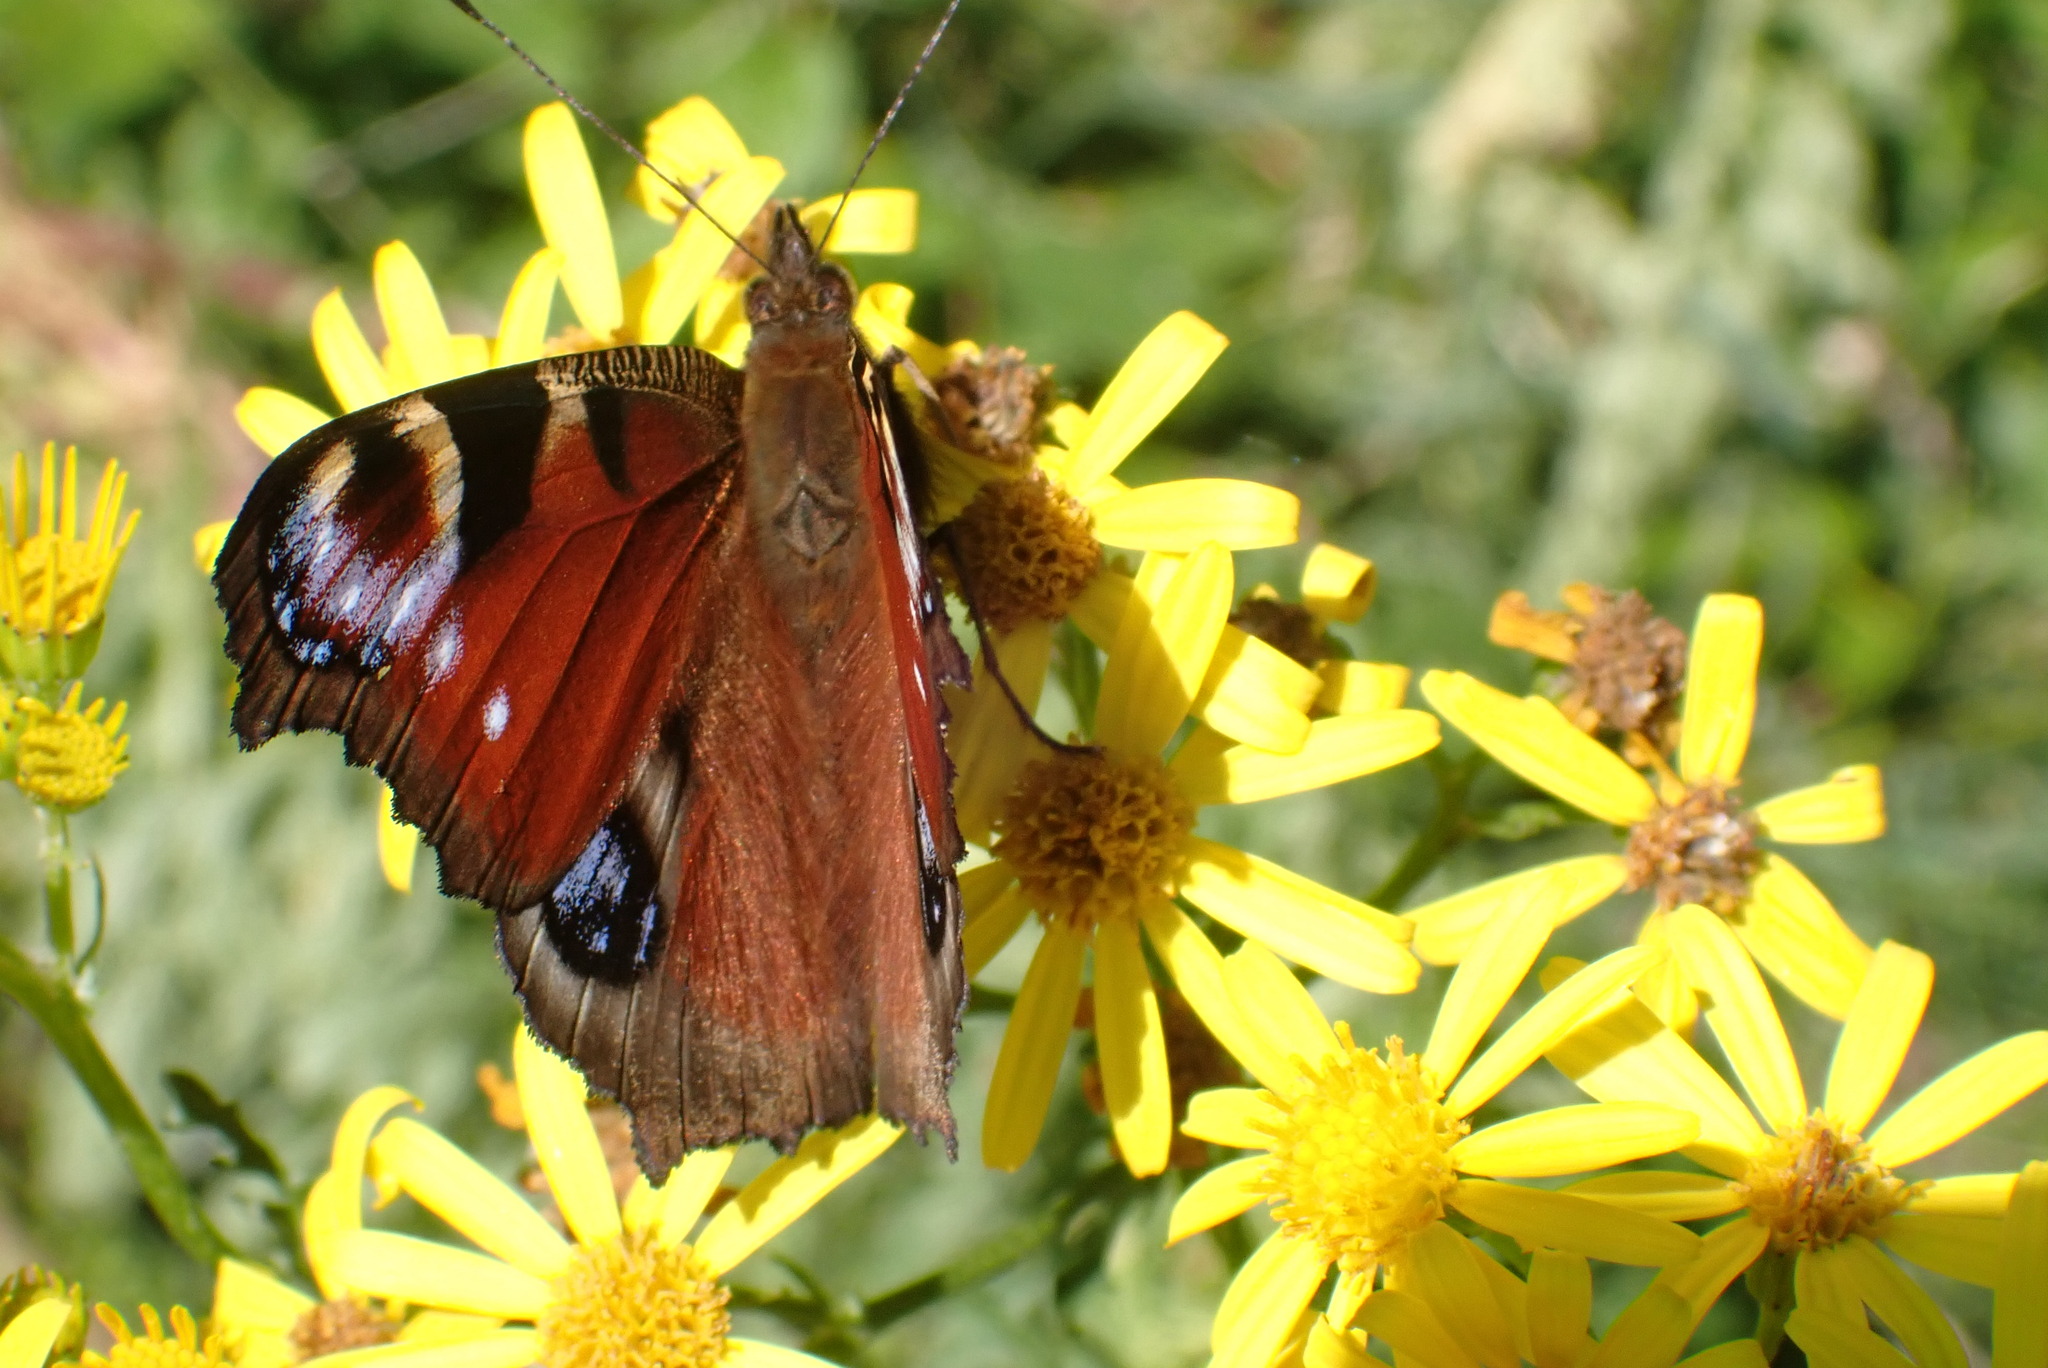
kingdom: Animalia
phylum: Arthropoda
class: Insecta
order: Lepidoptera
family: Nymphalidae
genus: Aglais
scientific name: Aglais io
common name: Peacock
